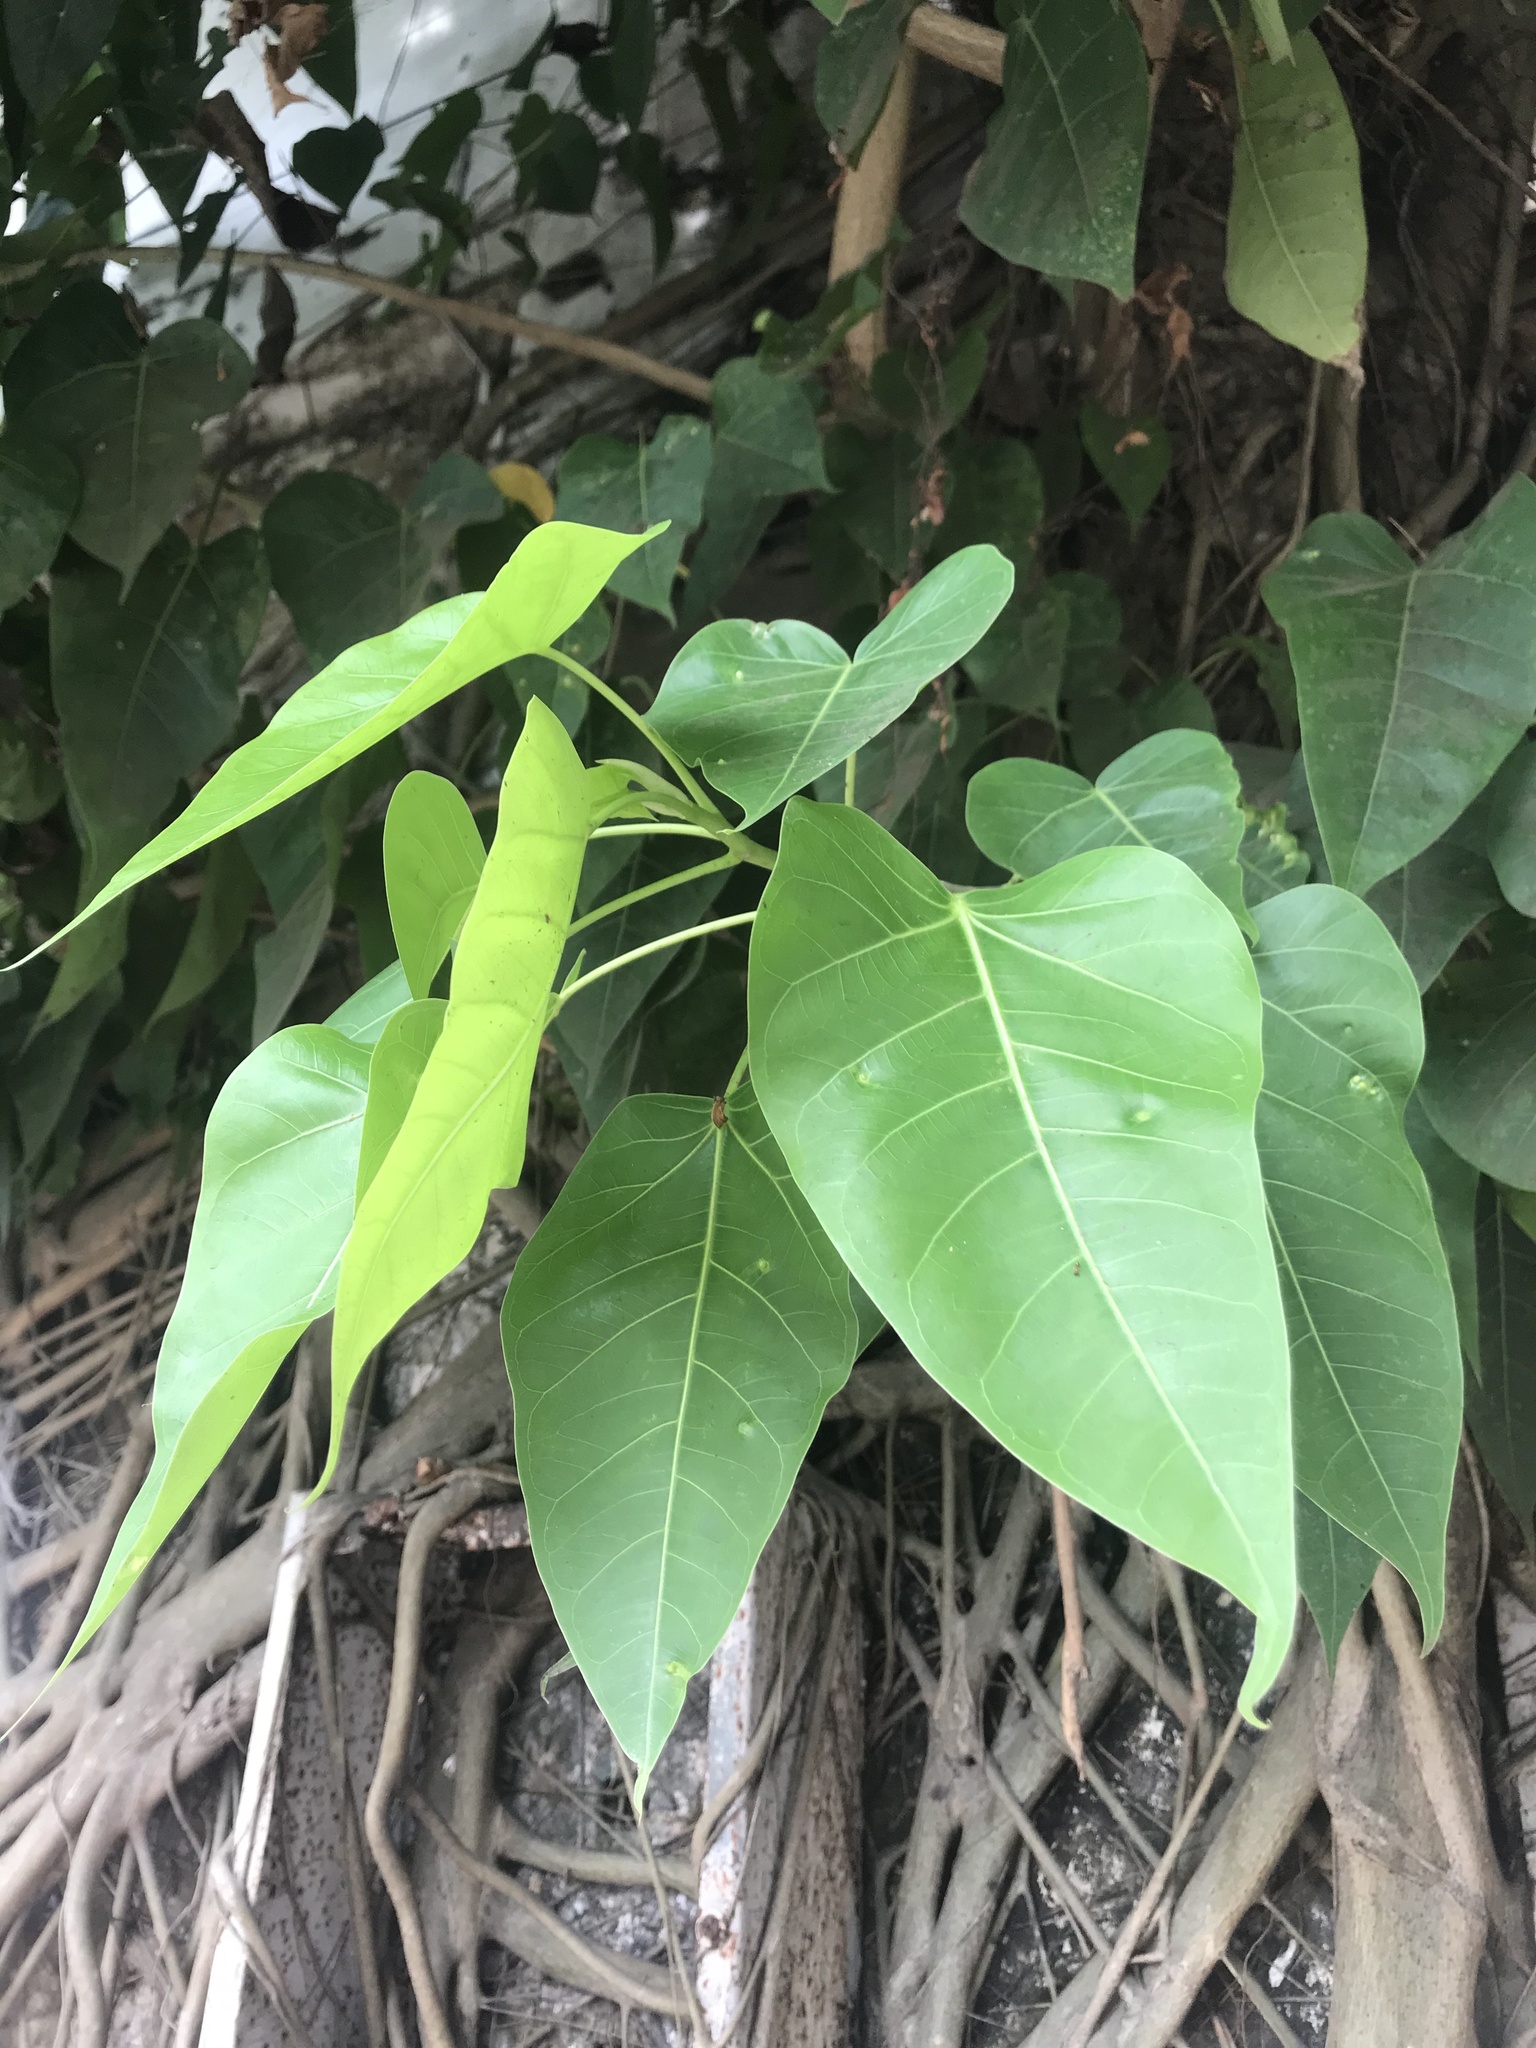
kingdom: Plantae
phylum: Tracheophyta
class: Magnoliopsida
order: Rosales
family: Moraceae
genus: Ficus
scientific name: Ficus rumphii
